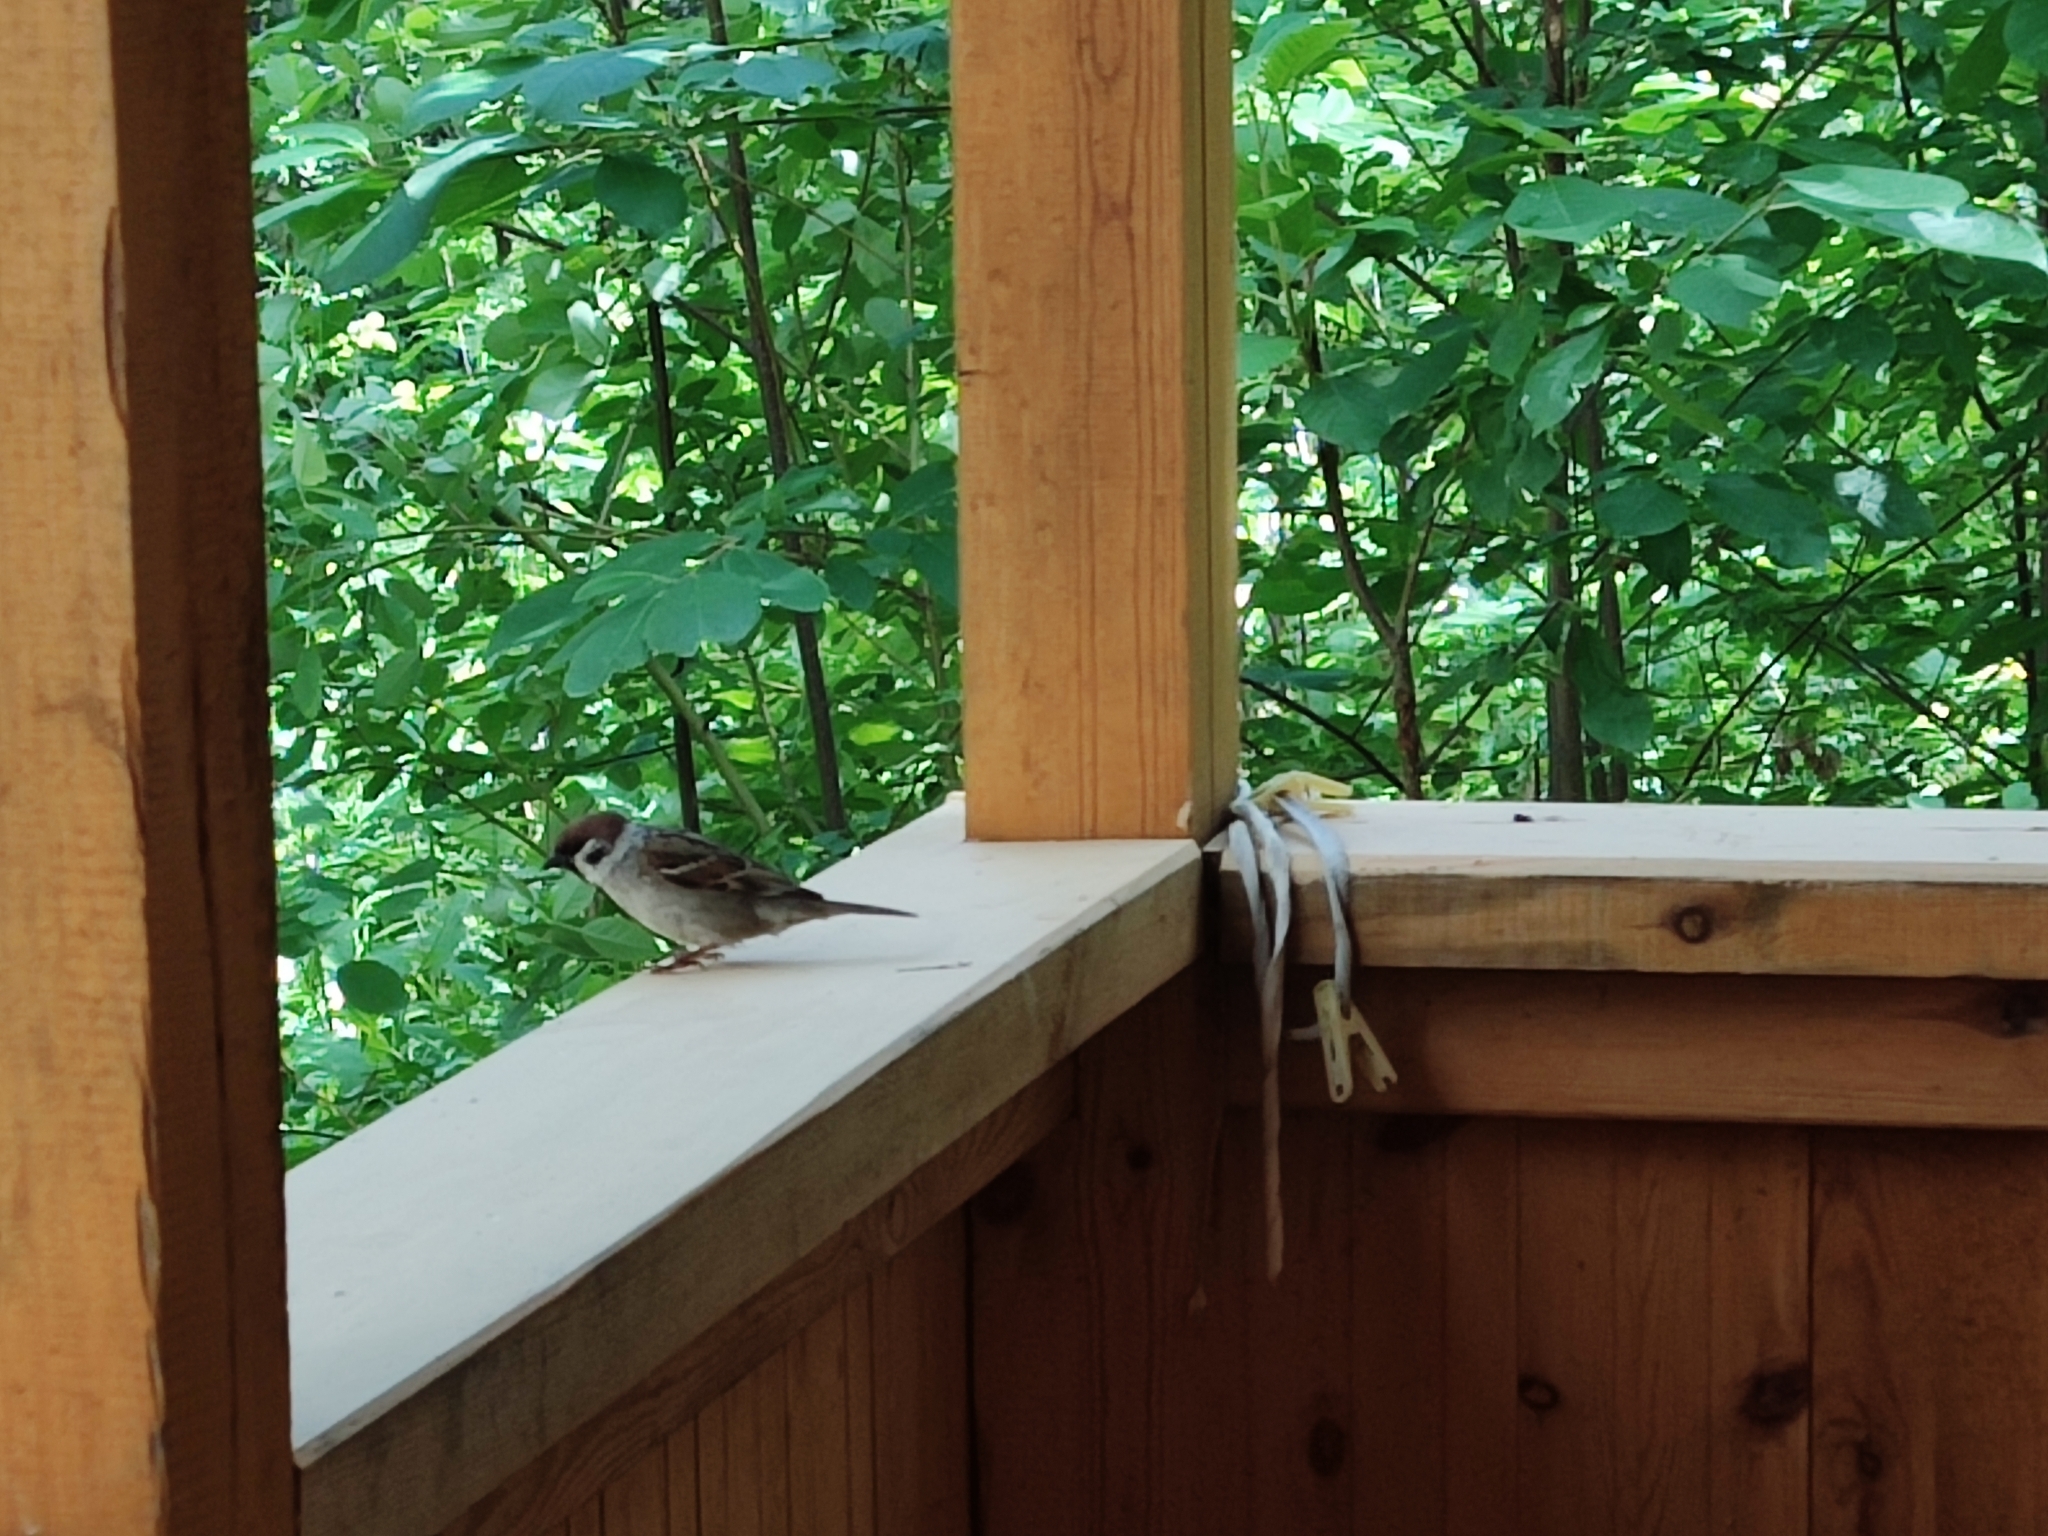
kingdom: Animalia
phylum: Chordata
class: Aves
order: Passeriformes
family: Passeridae
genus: Passer
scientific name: Passer montanus
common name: Eurasian tree sparrow
